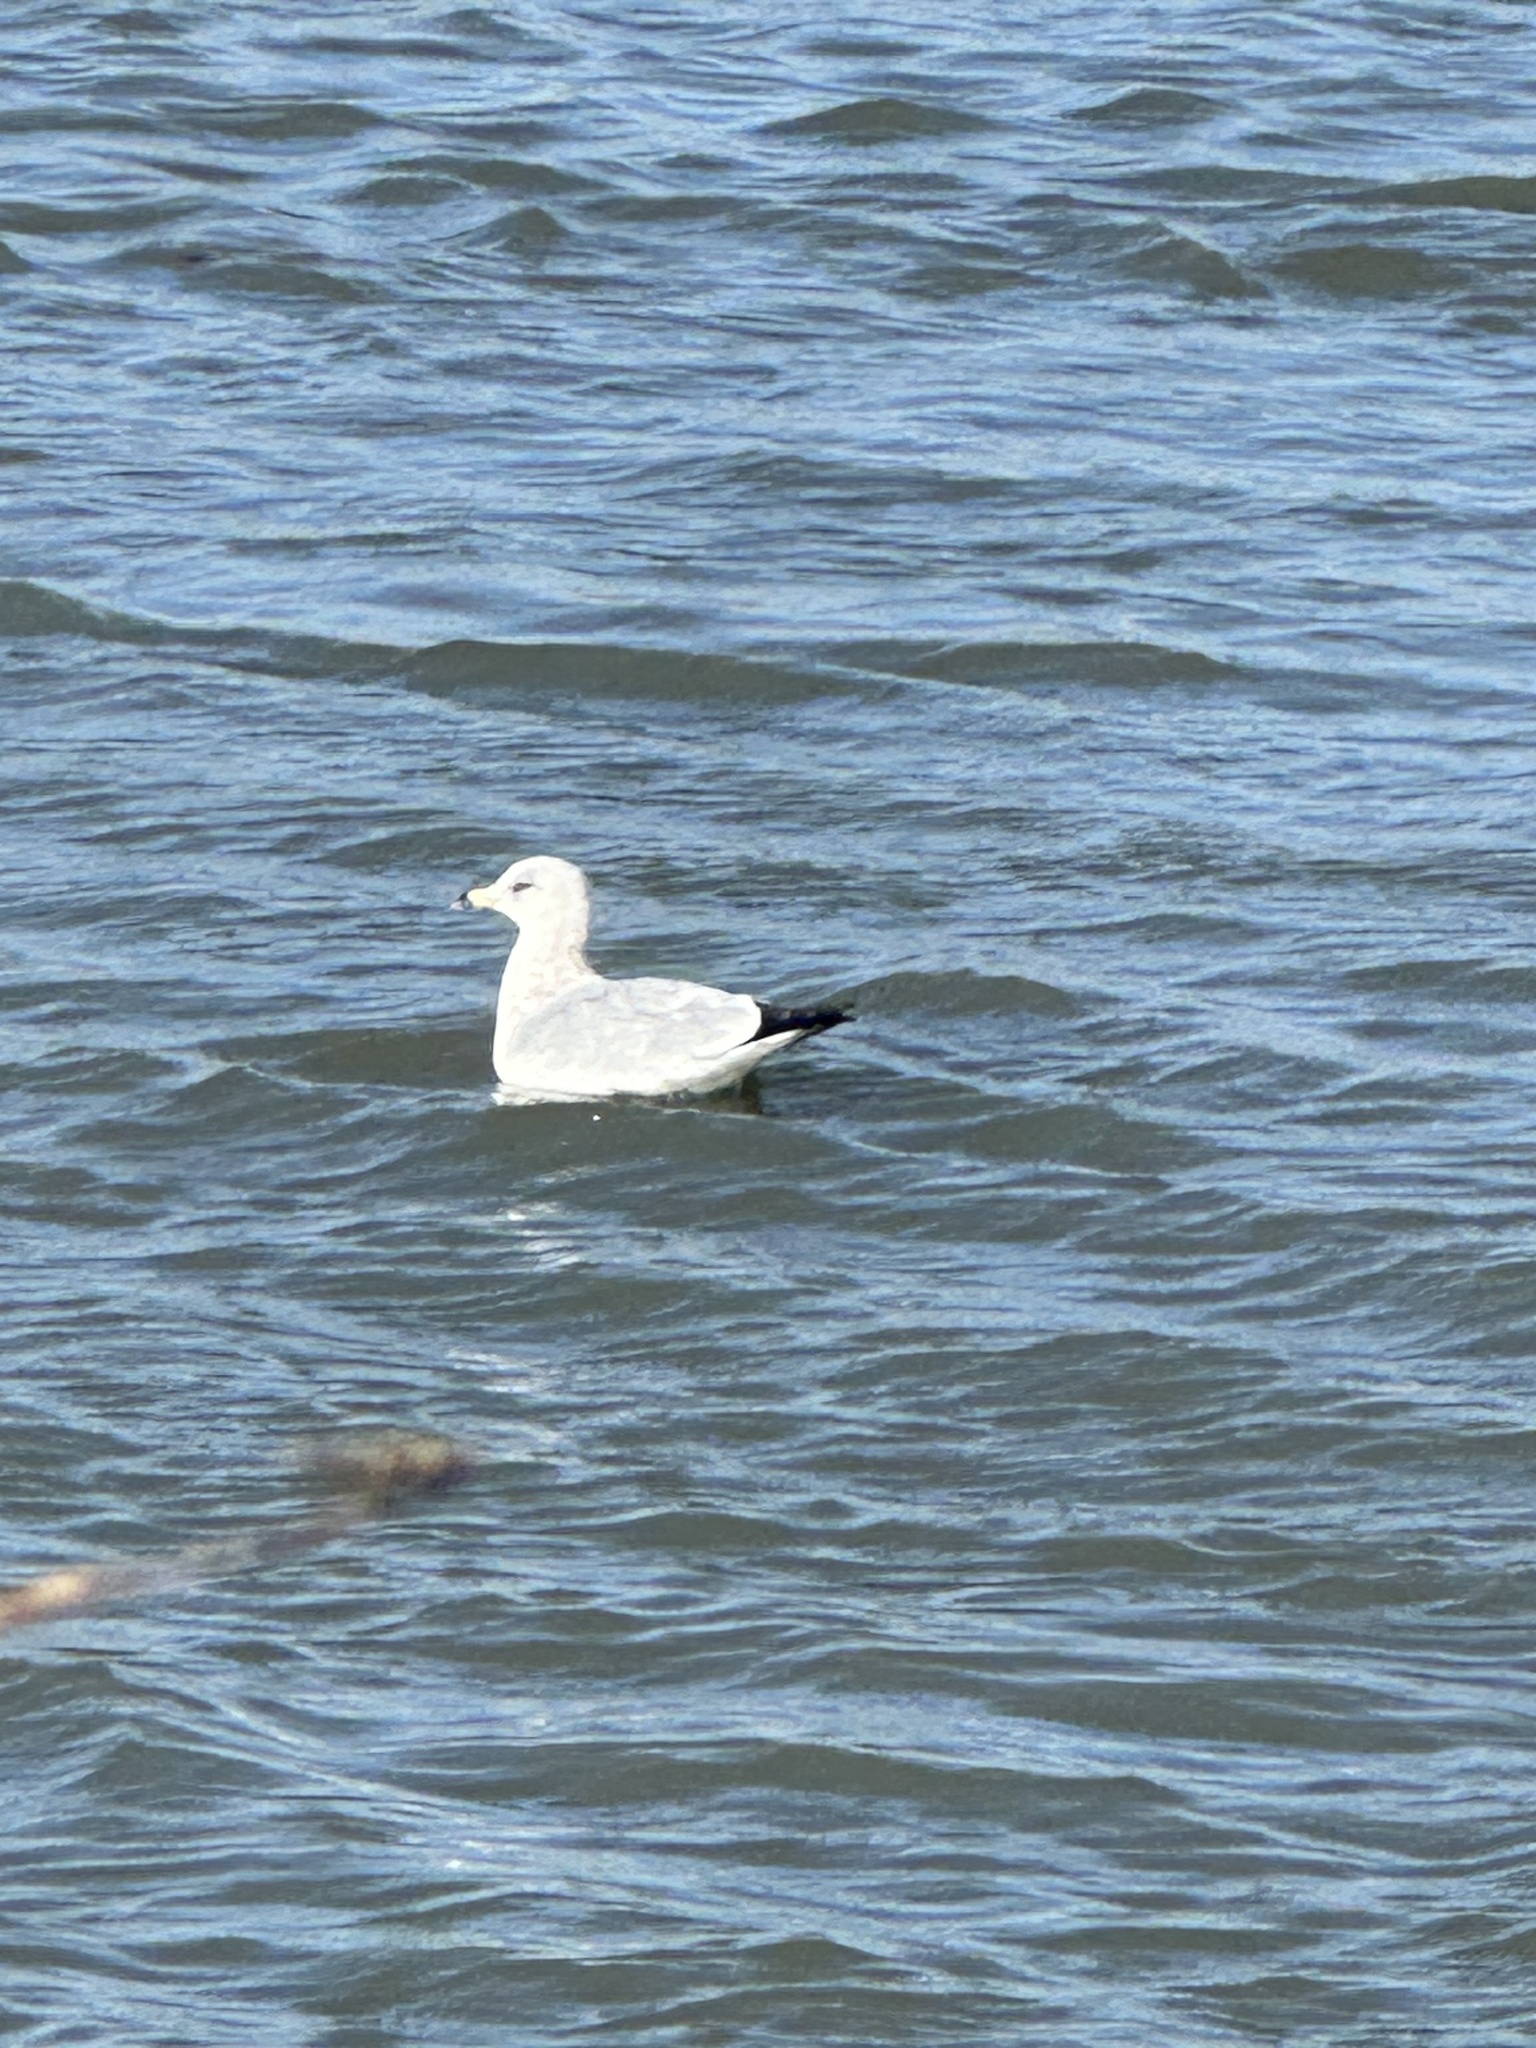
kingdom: Animalia
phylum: Chordata
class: Aves
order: Charadriiformes
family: Laridae
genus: Larus
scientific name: Larus delawarensis
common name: Ring-billed gull
